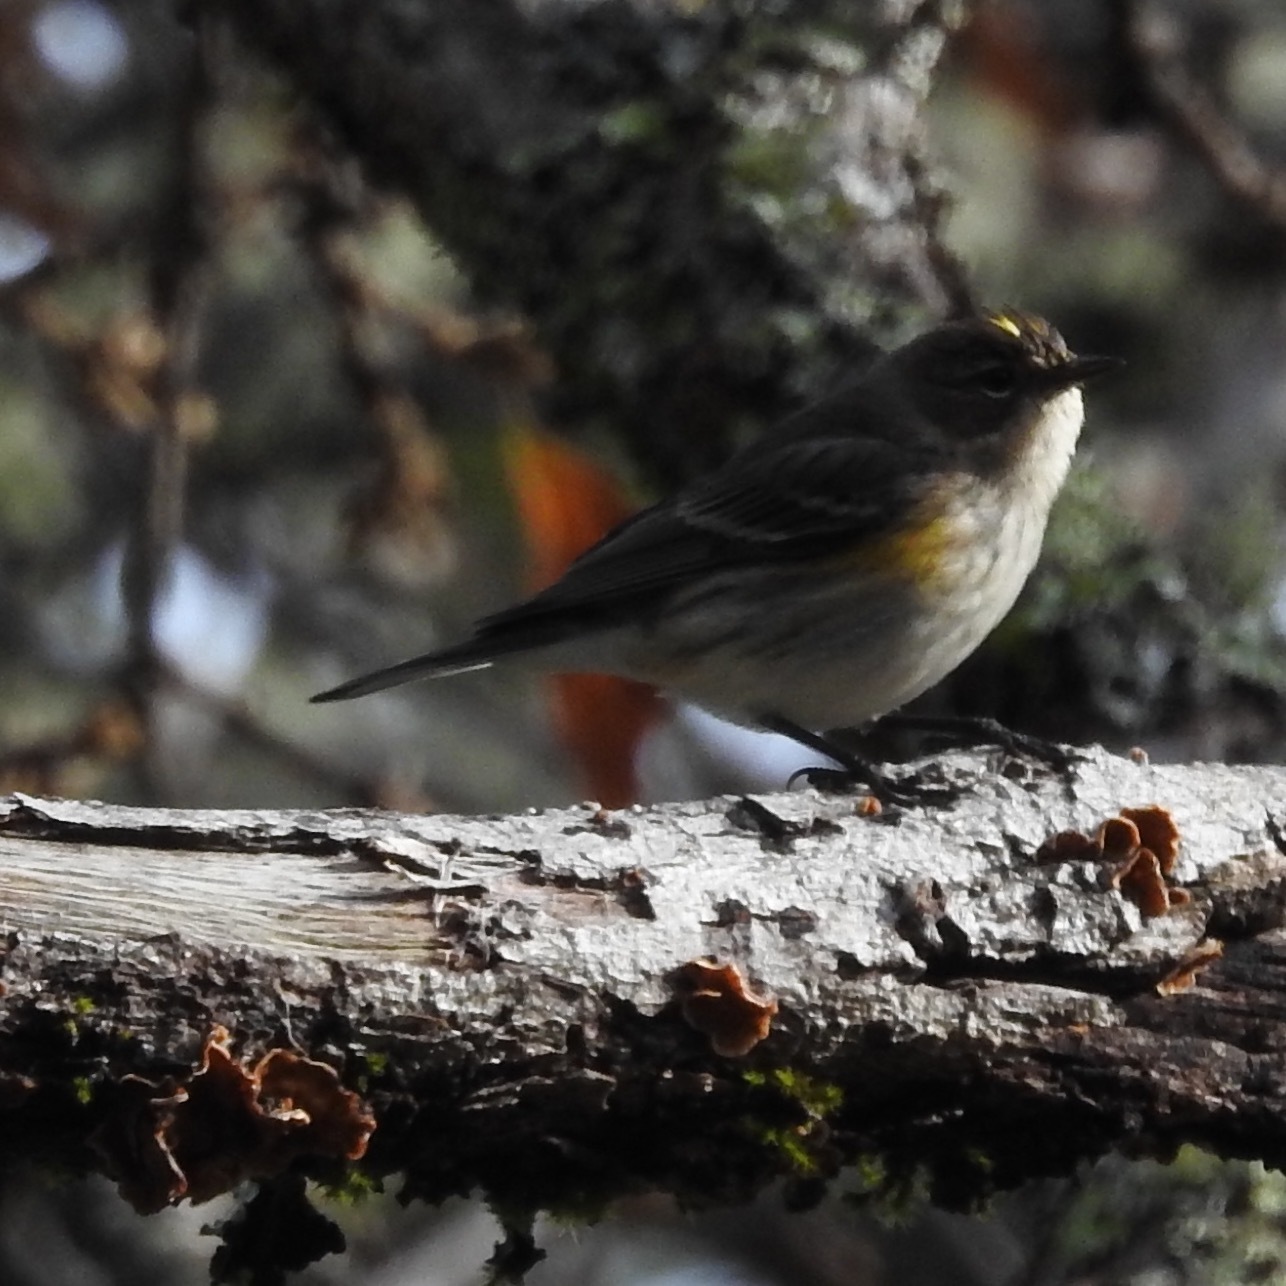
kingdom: Animalia
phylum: Chordata
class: Aves
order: Passeriformes
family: Parulidae
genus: Setophaga
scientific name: Setophaga coronata
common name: Myrtle warbler
